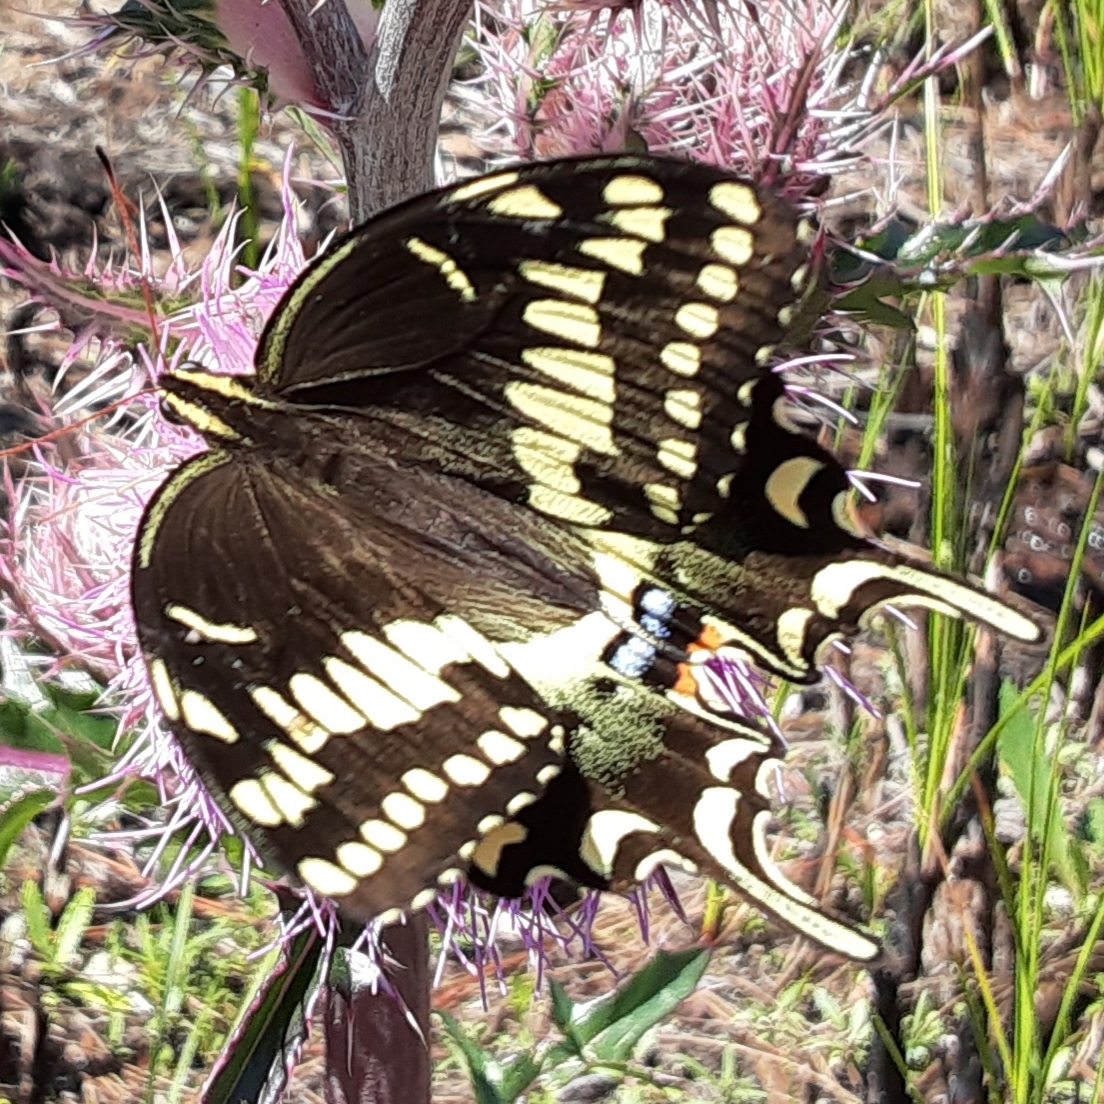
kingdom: Animalia
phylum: Arthropoda
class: Insecta
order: Lepidoptera
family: Papilionidae
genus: Papilio
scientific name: Papilio palamedes
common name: Palamedes swallowtail
